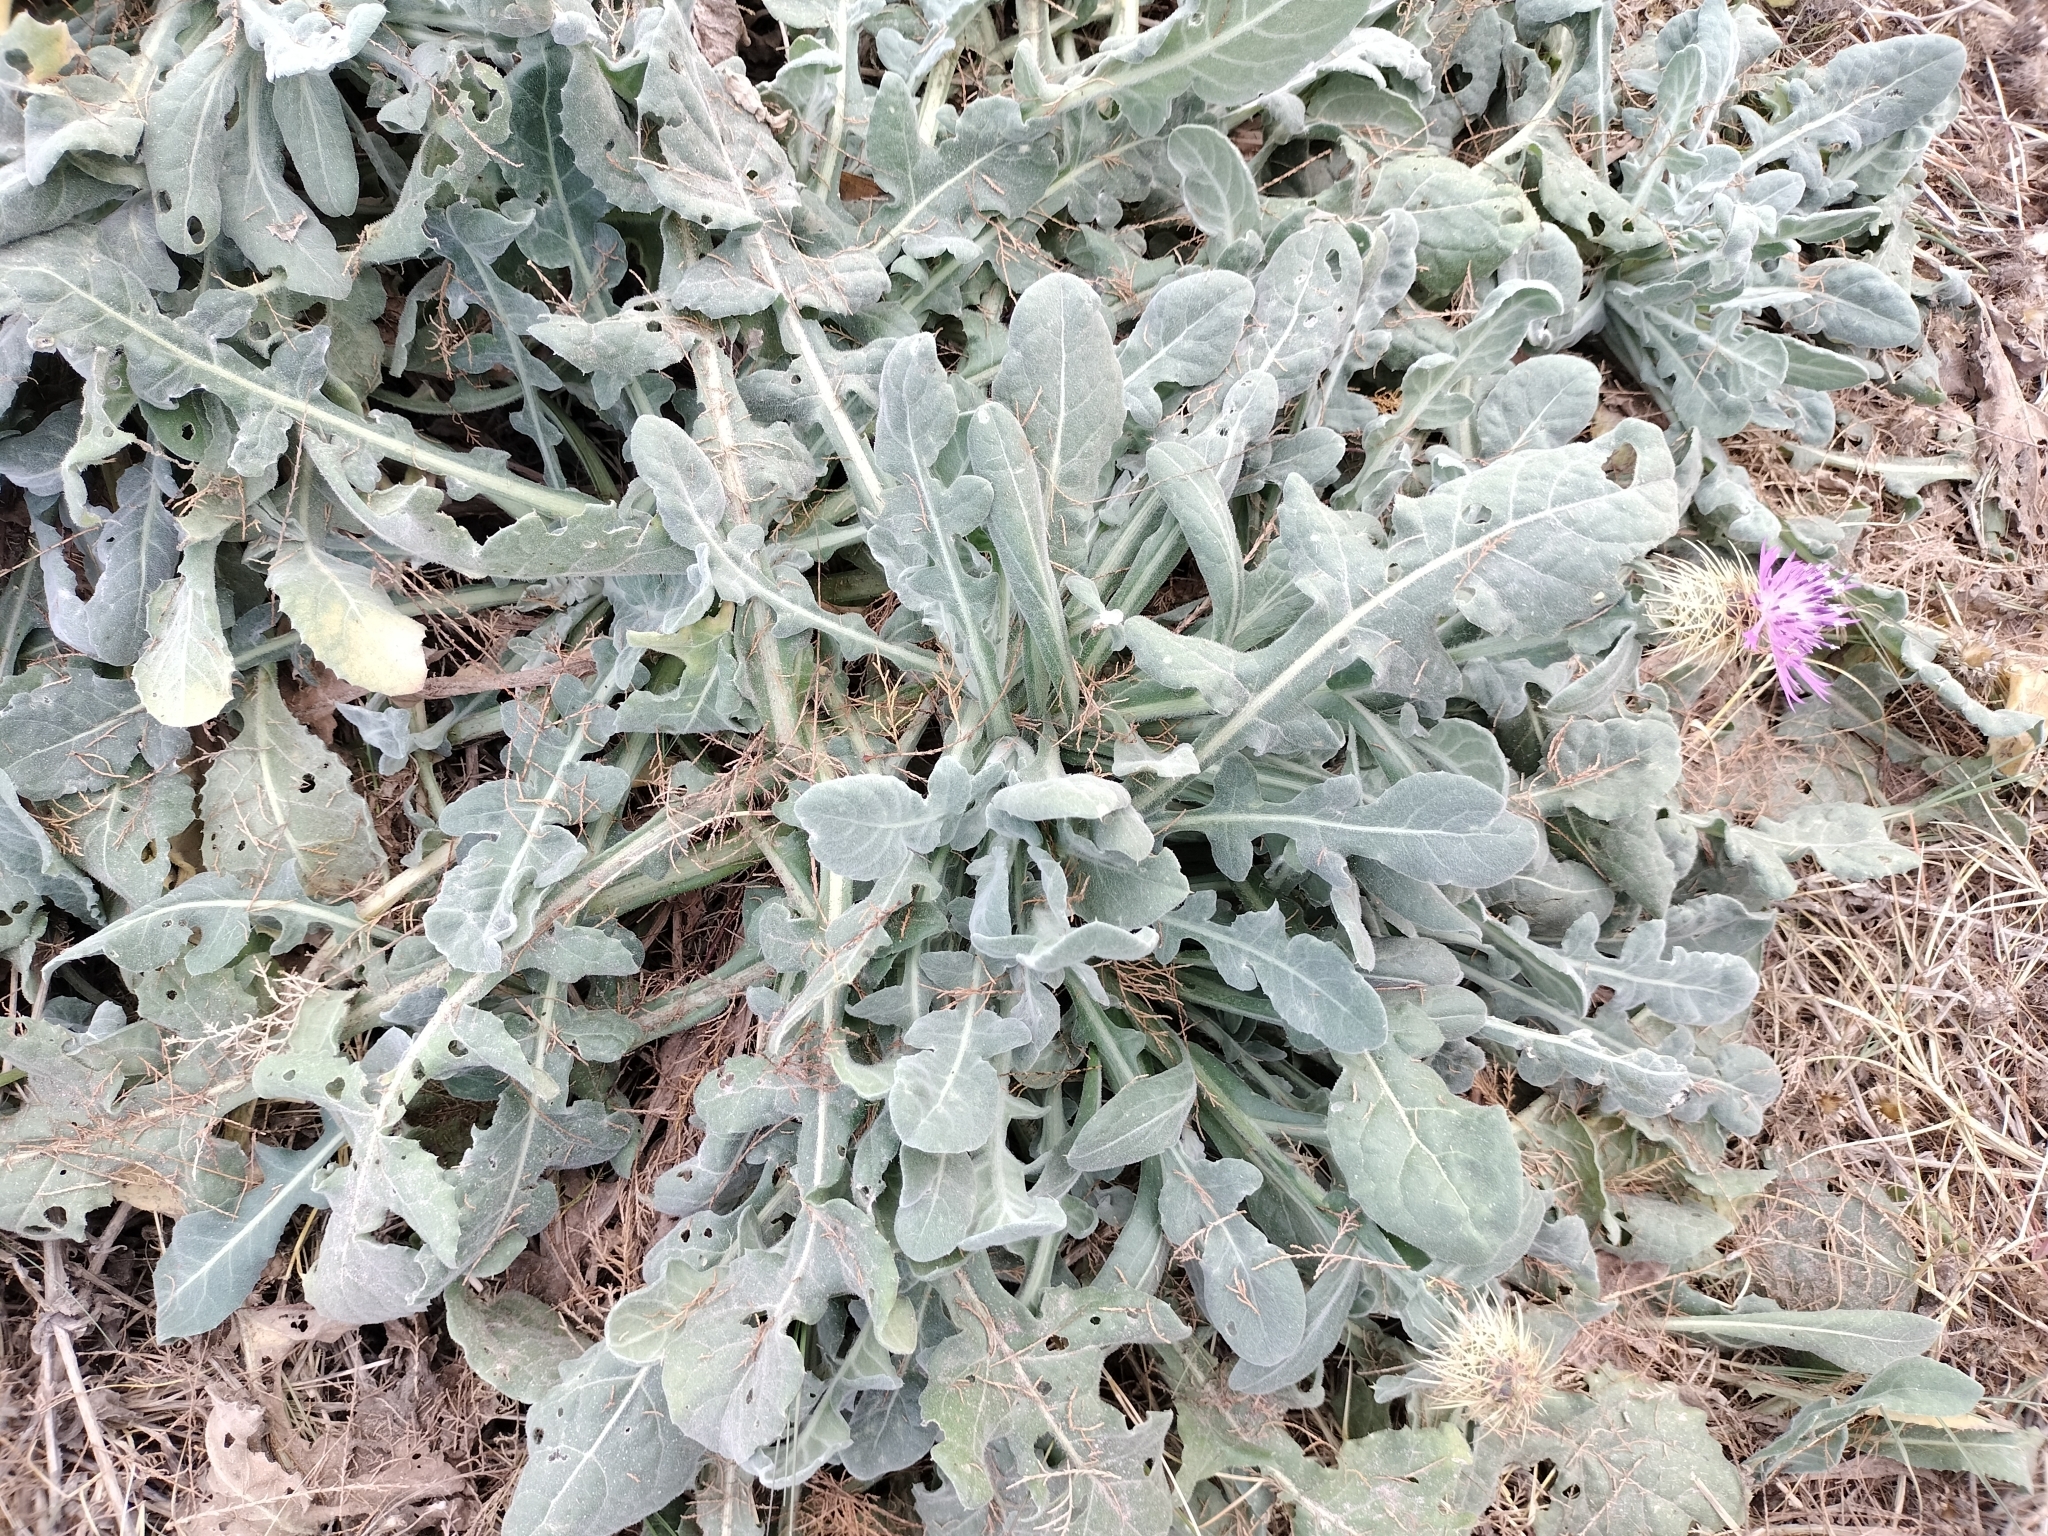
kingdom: Plantae
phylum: Tracheophyta
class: Magnoliopsida
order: Asterales
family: Asteraceae
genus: Centaurea
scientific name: Centaurea seridis
